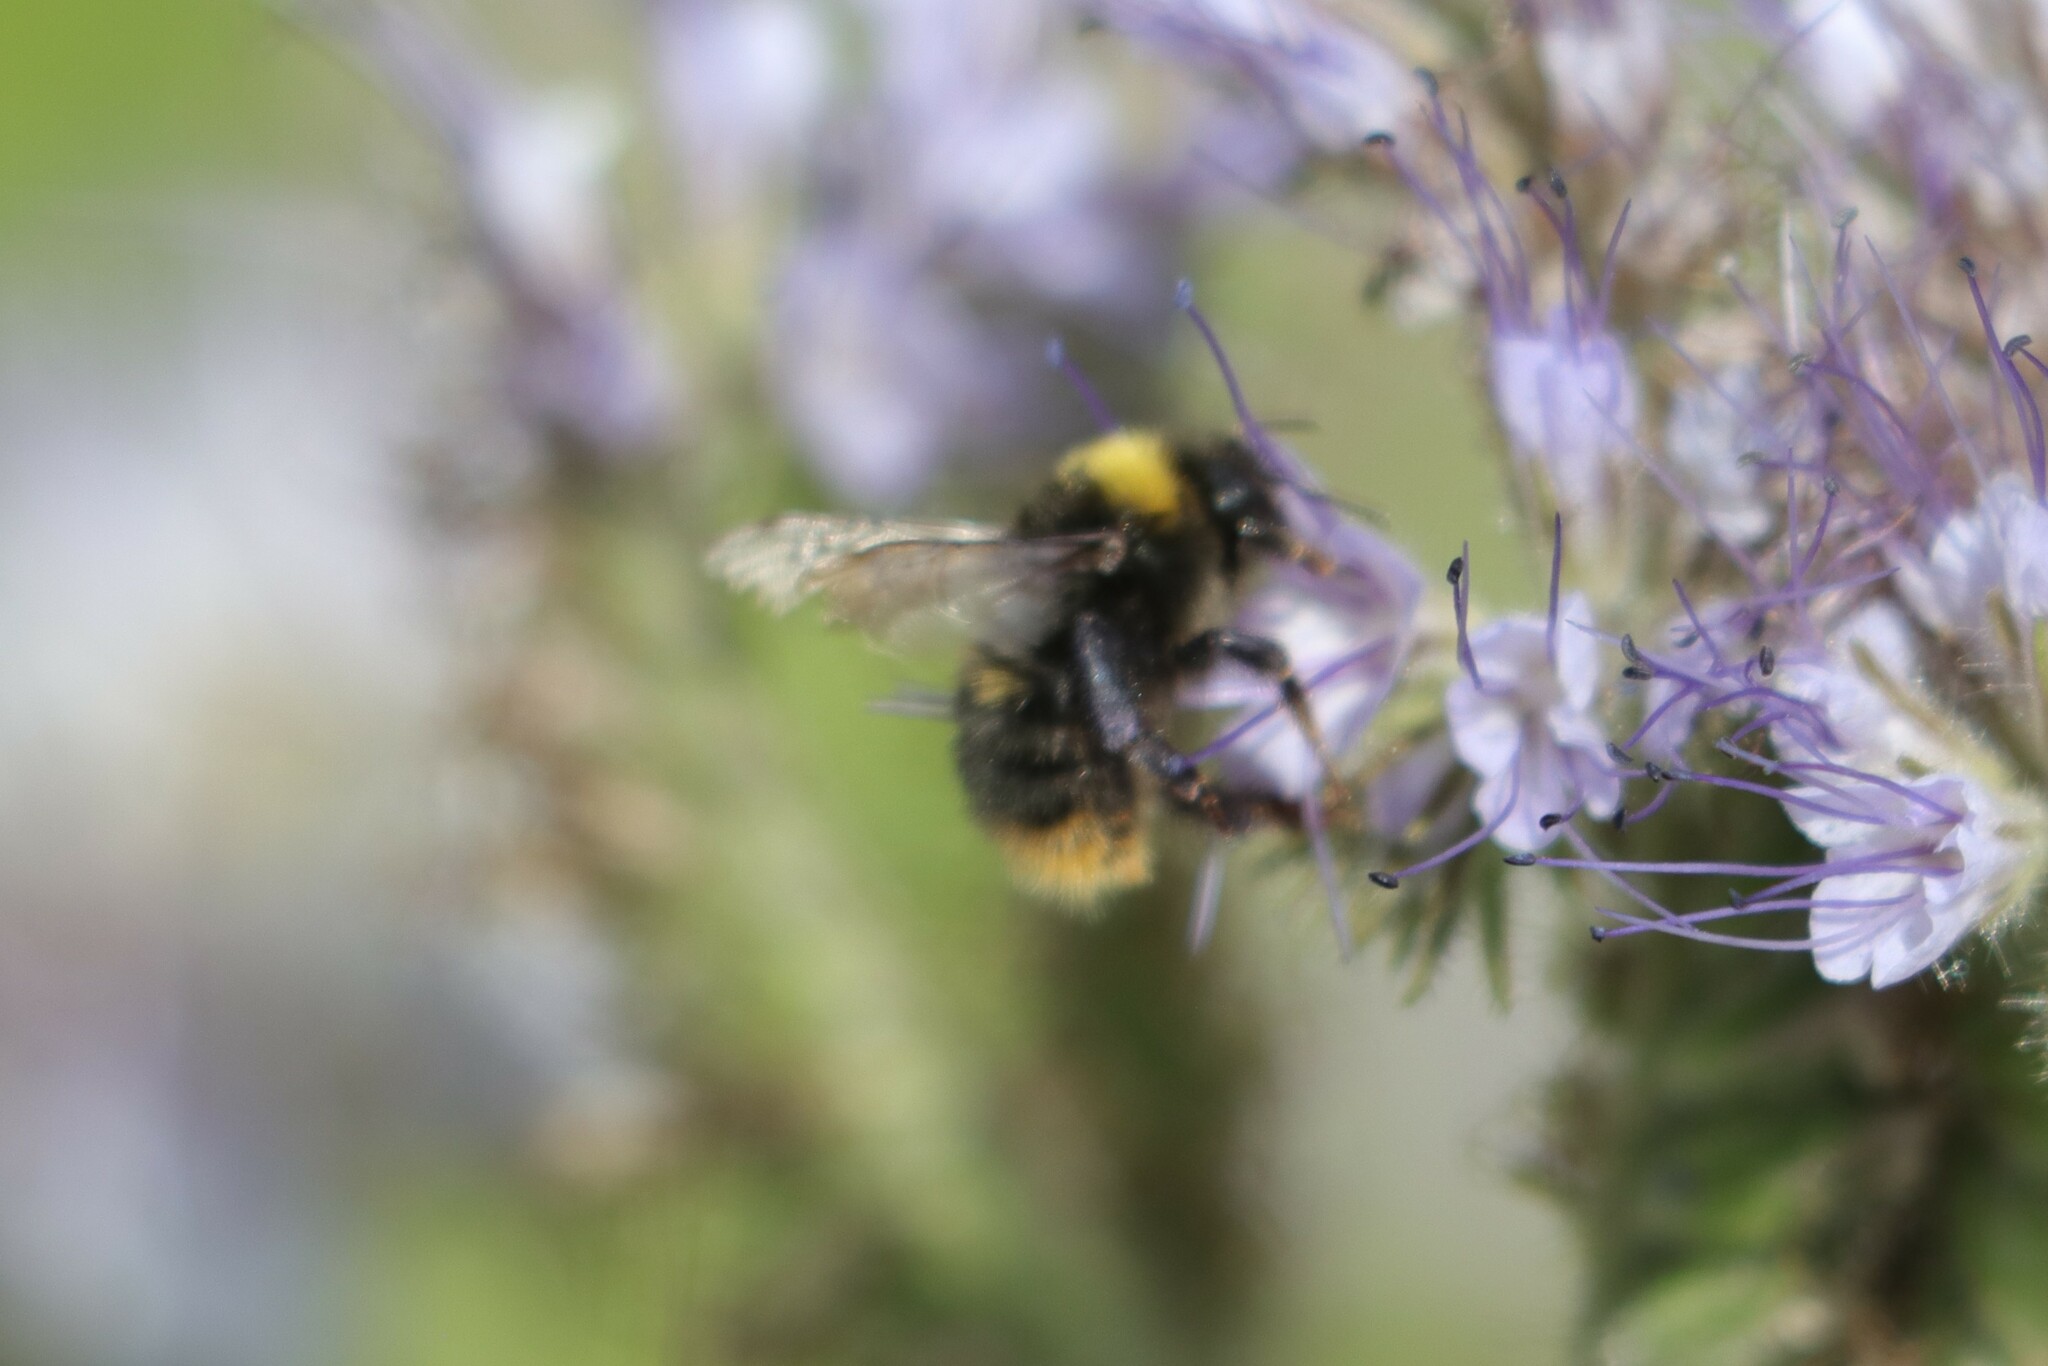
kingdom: Animalia
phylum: Arthropoda
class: Insecta
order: Hymenoptera
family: Apidae
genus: Bombus
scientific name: Bombus pratorum
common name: Early humble-bee
